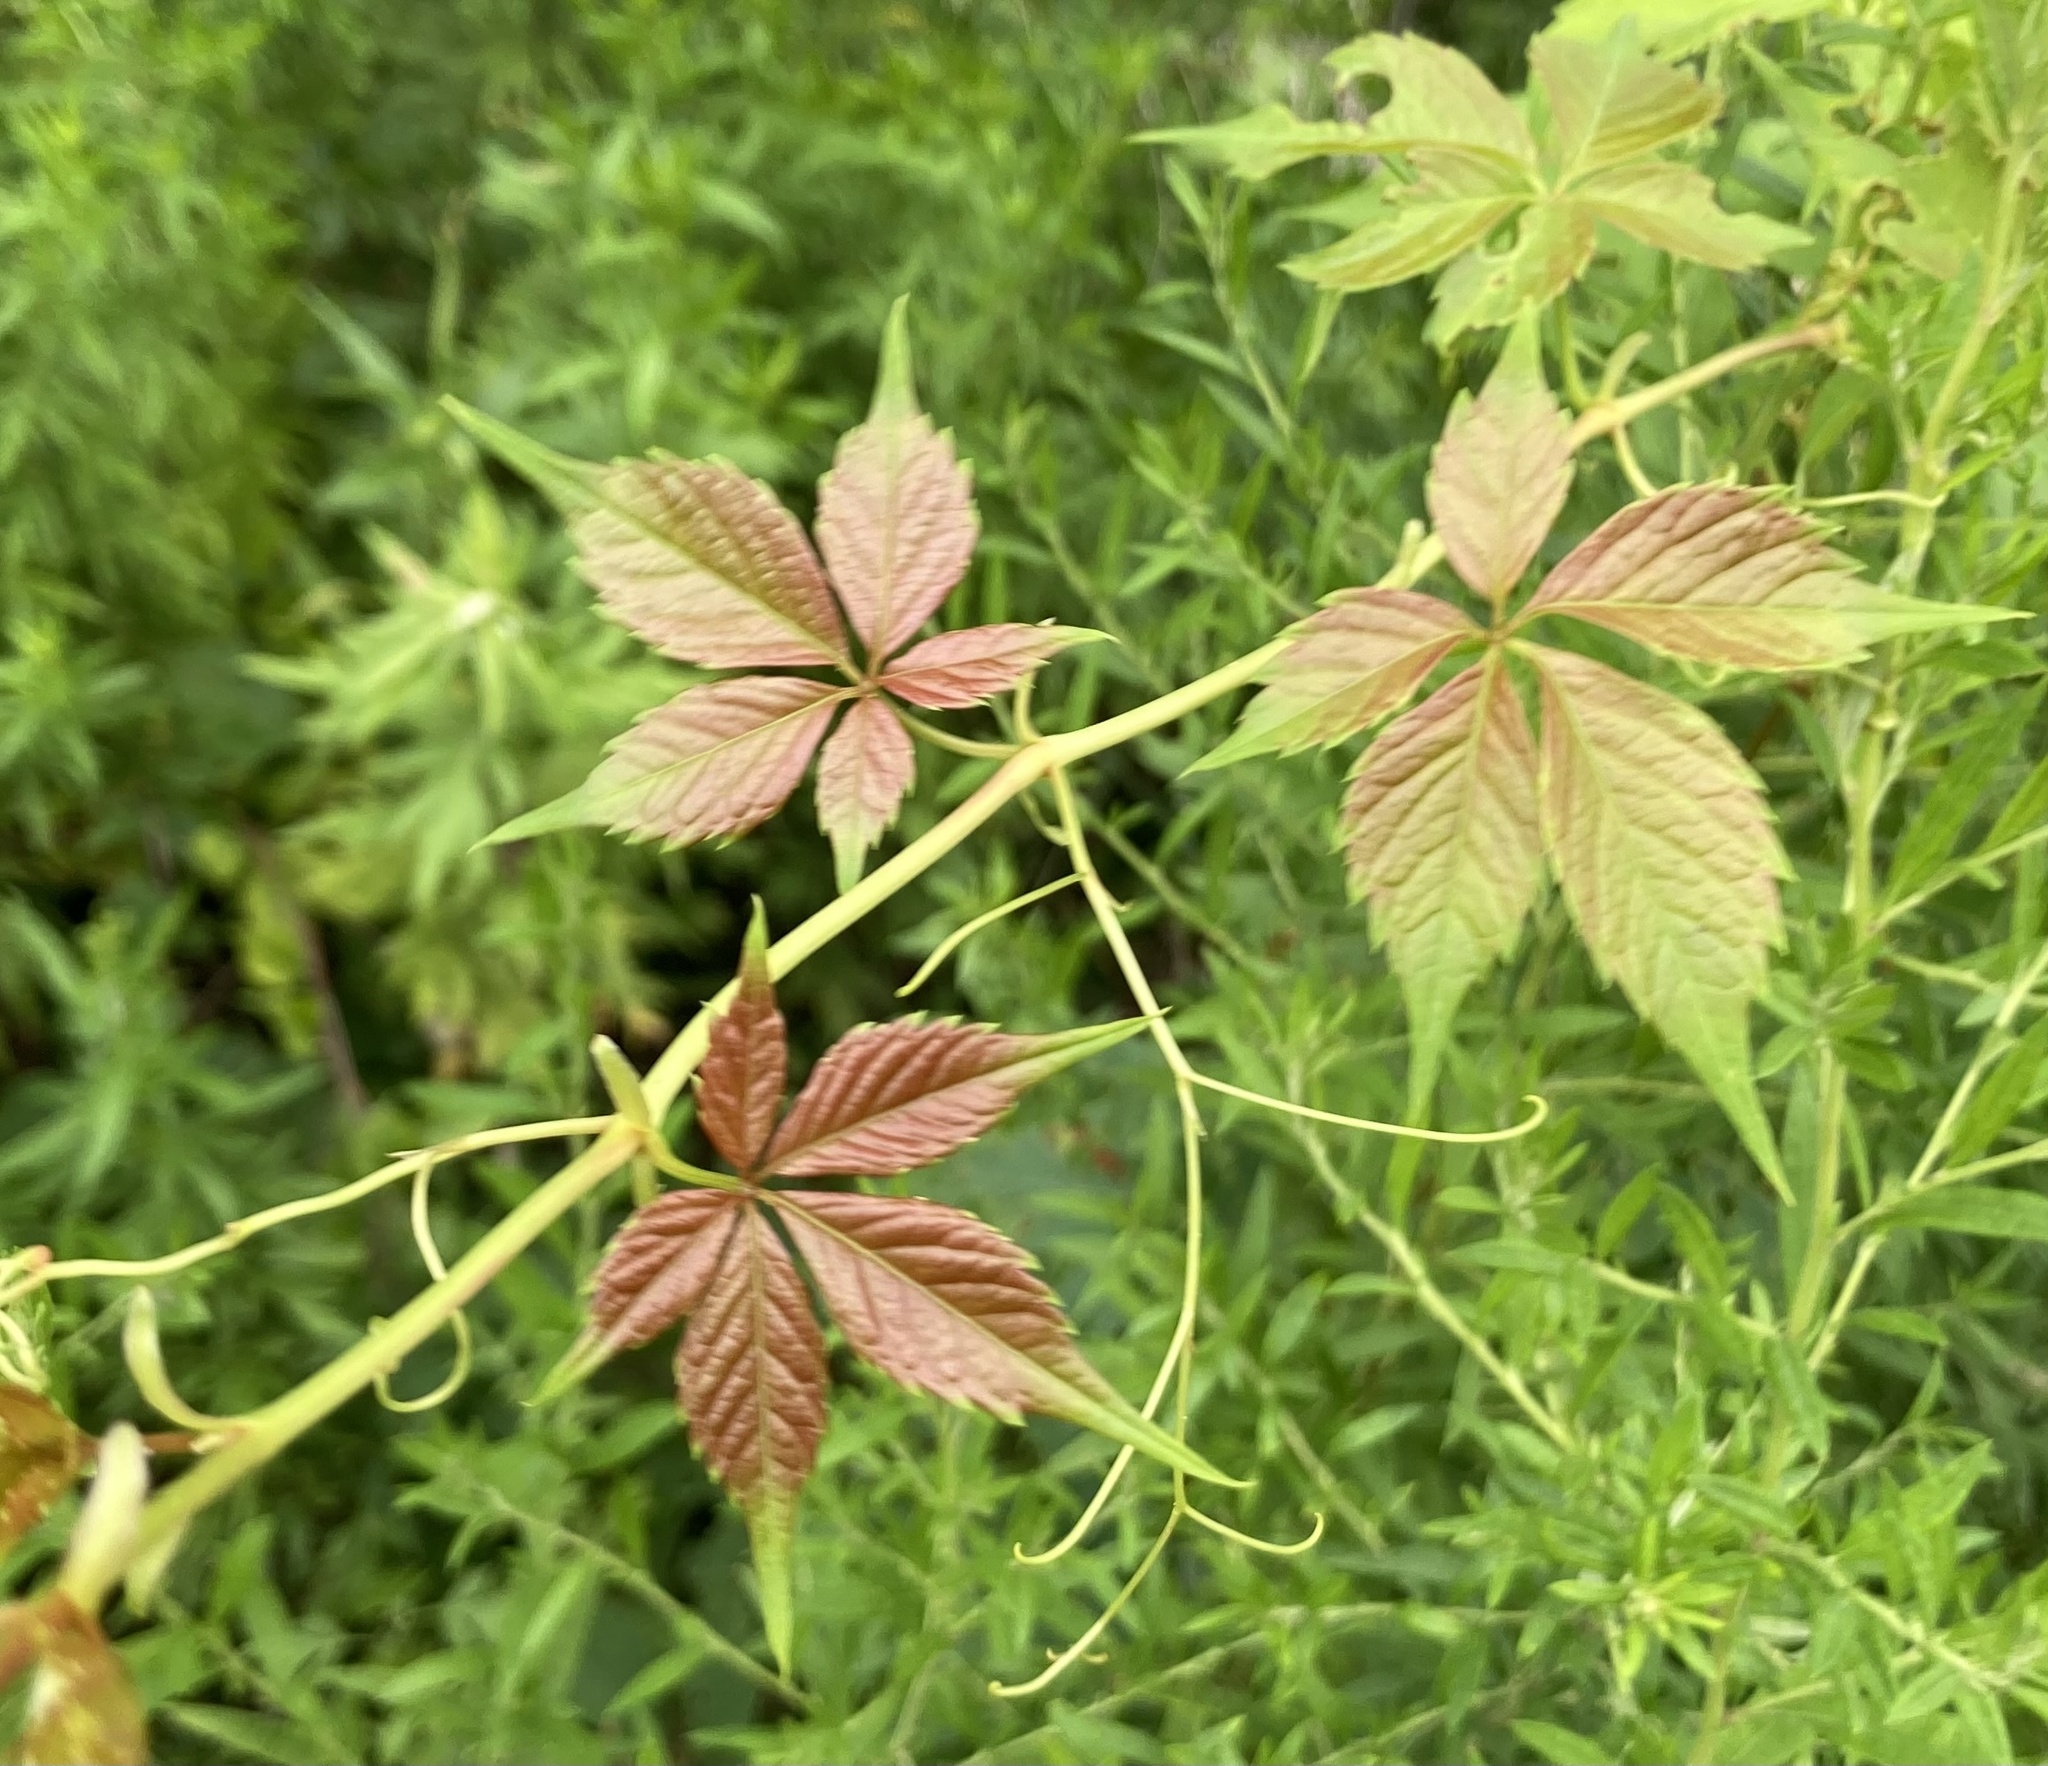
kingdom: Plantae
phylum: Tracheophyta
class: Magnoliopsida
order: Vitales
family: Vitaceae
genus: Parthenocissus
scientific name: Parthenocissus quinquefolia
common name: Virginia-creeper
